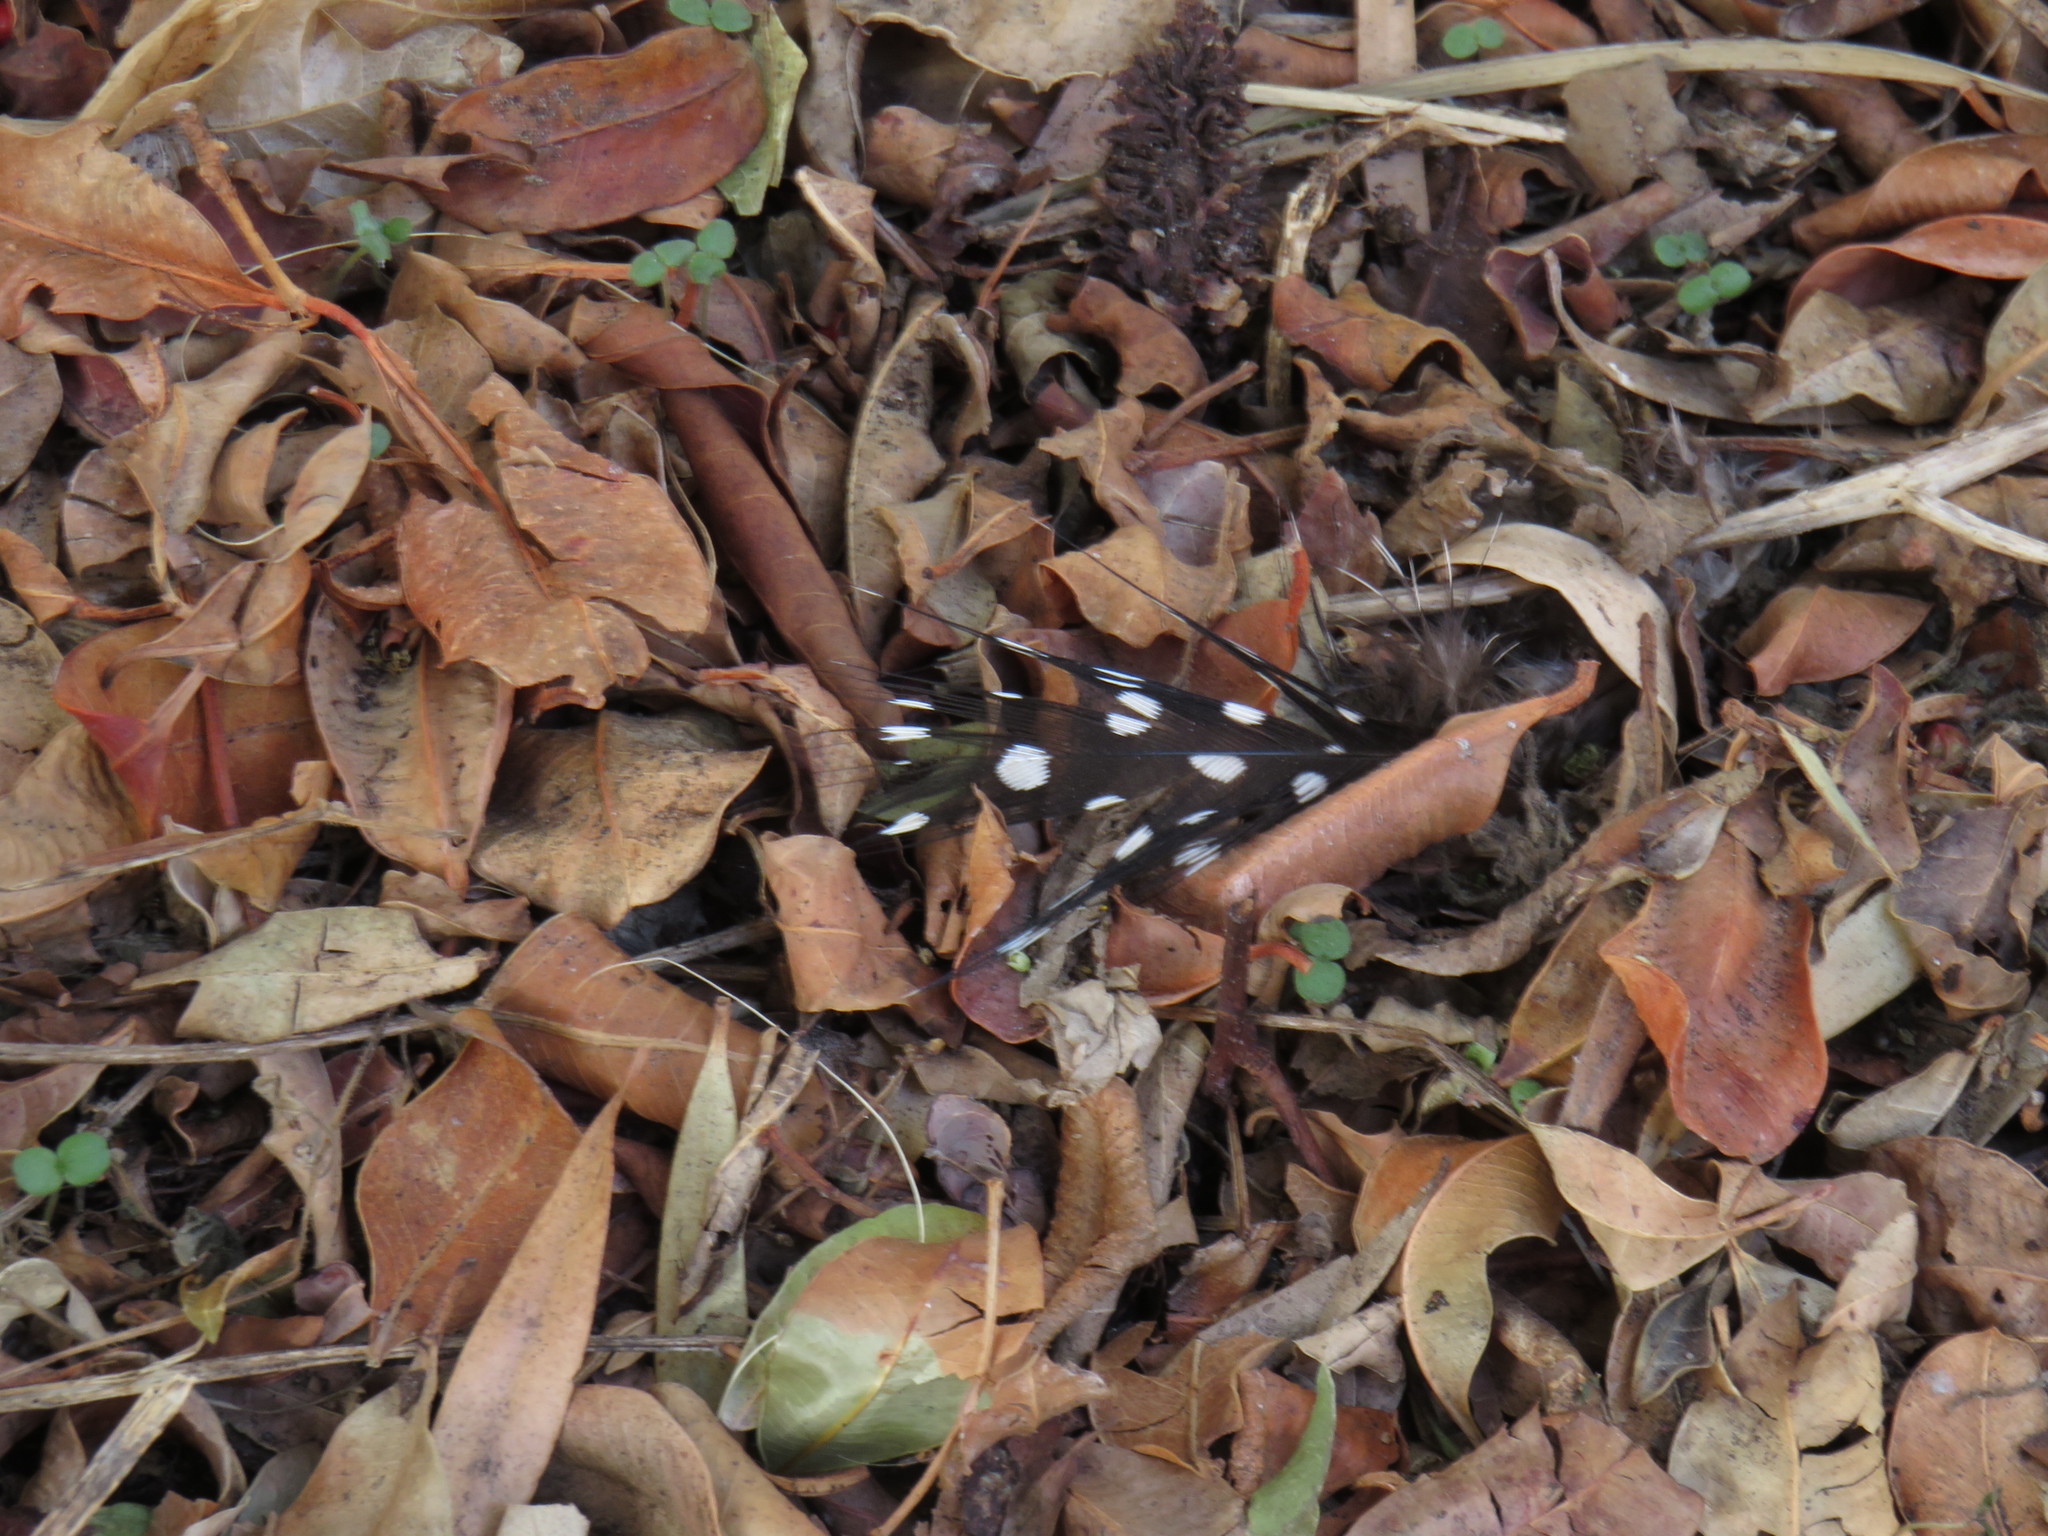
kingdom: Animalia
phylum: Chordata
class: Aves
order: Galliformes
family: Numididae
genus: Numida
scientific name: Numida meleagris
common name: Helmeted guineafowl
